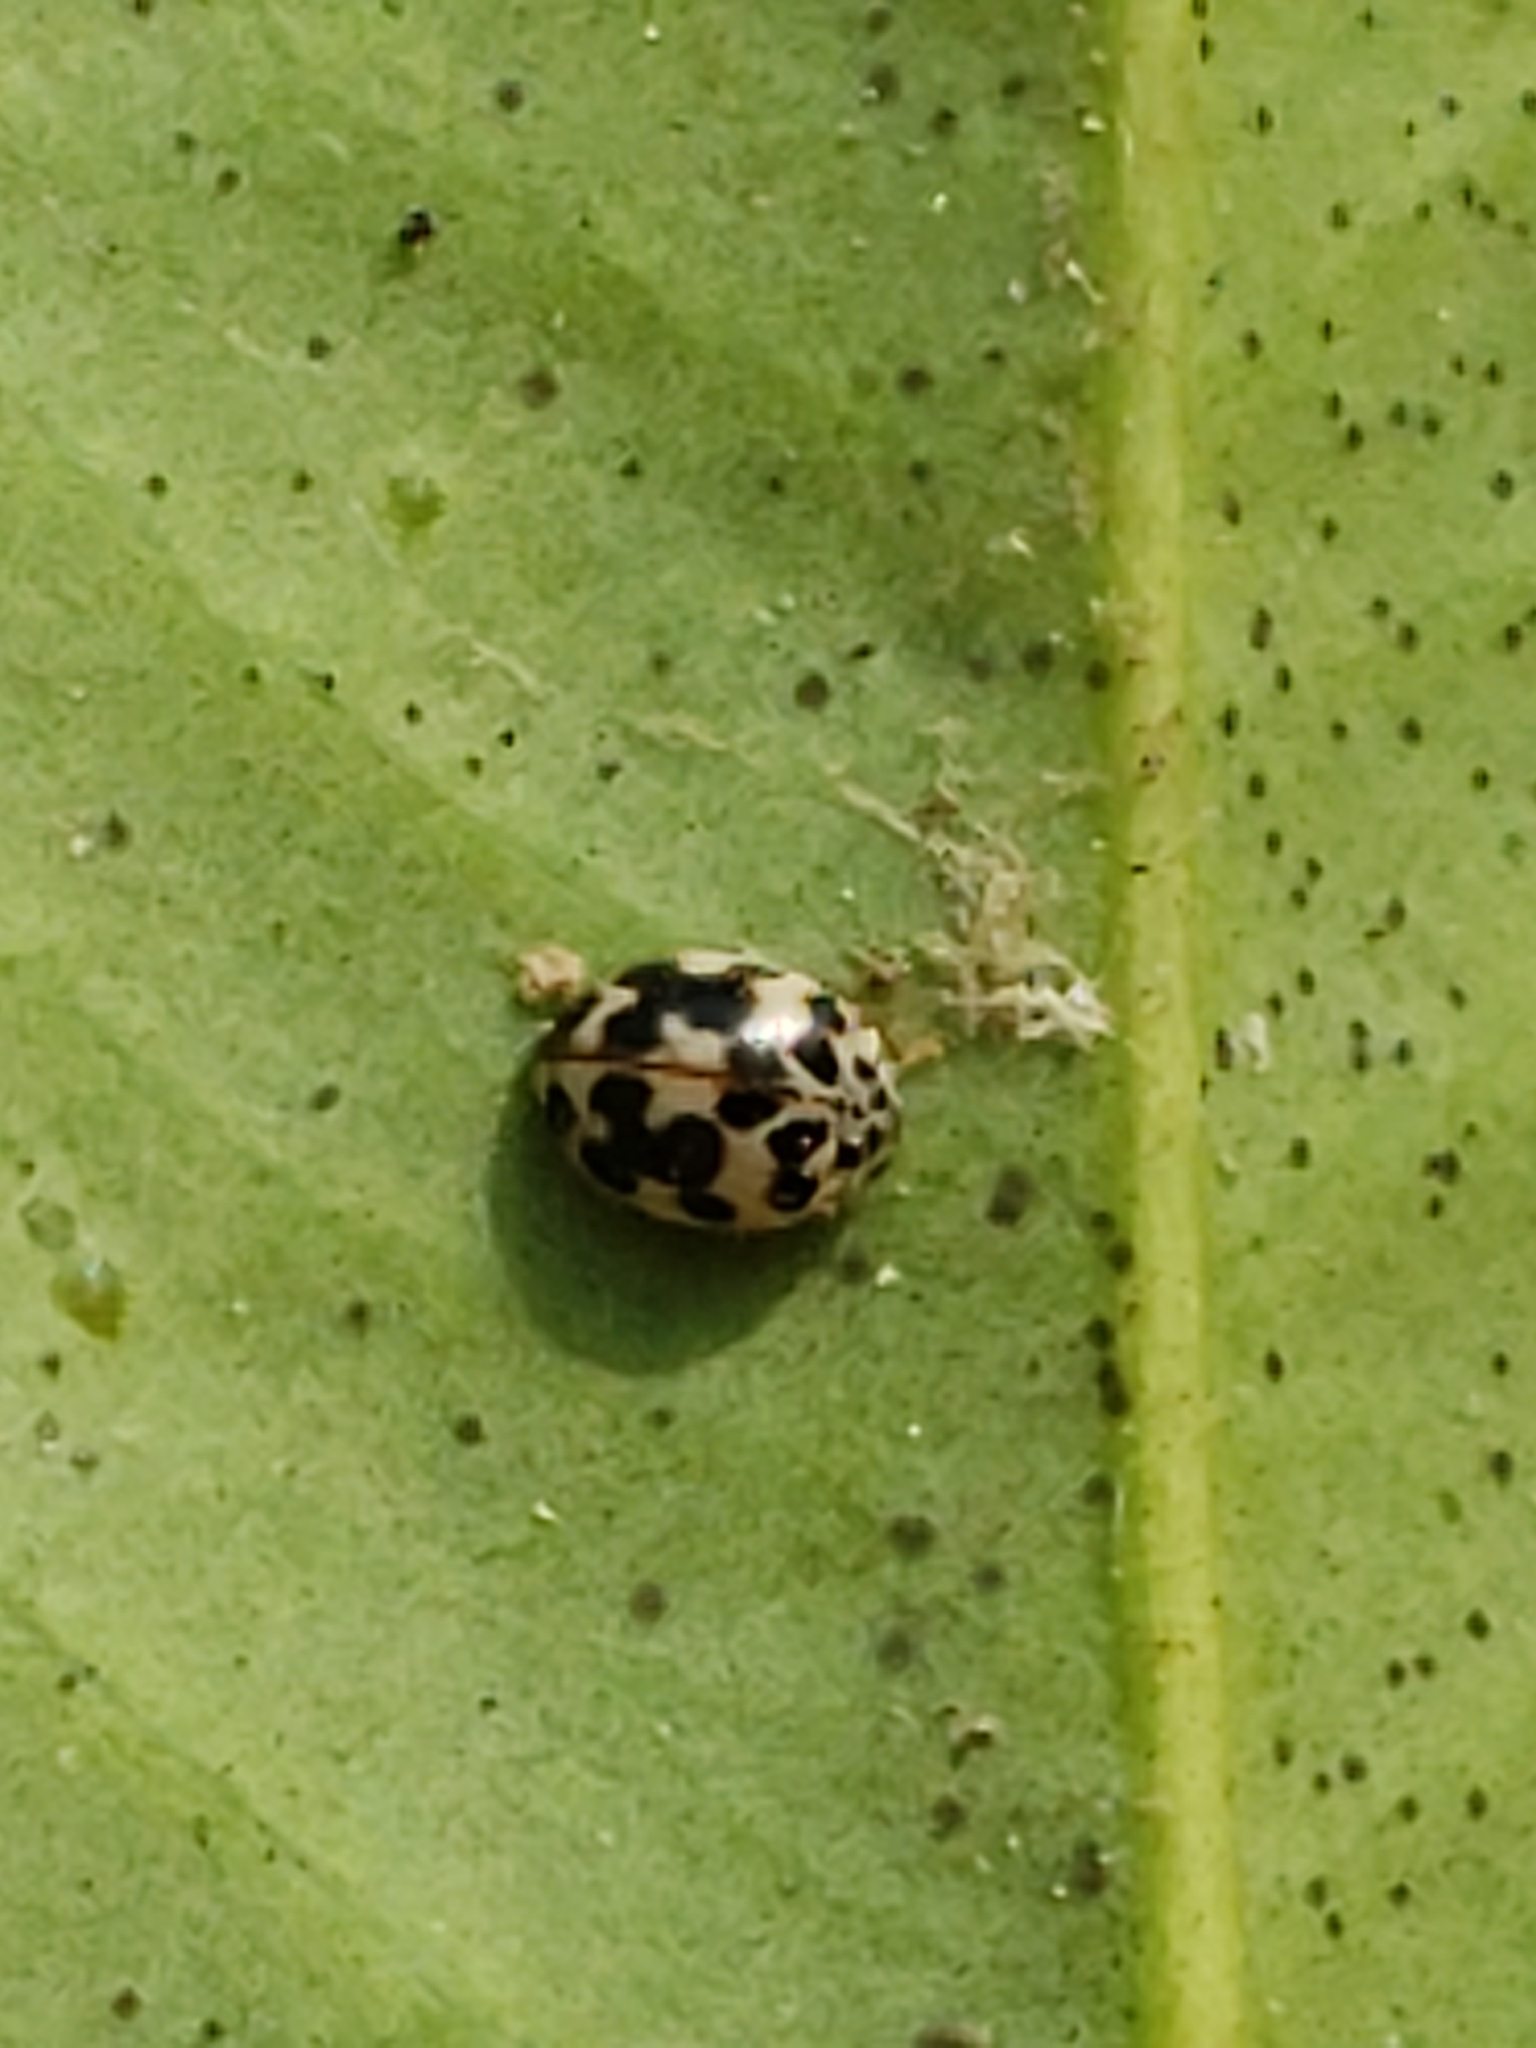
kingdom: Animalia
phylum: Arthropoda
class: Insecta
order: Coleoptera
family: Coccinellidae
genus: Psyllobora
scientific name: Psyllobora vigintimaculata
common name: Ladybird beetle
